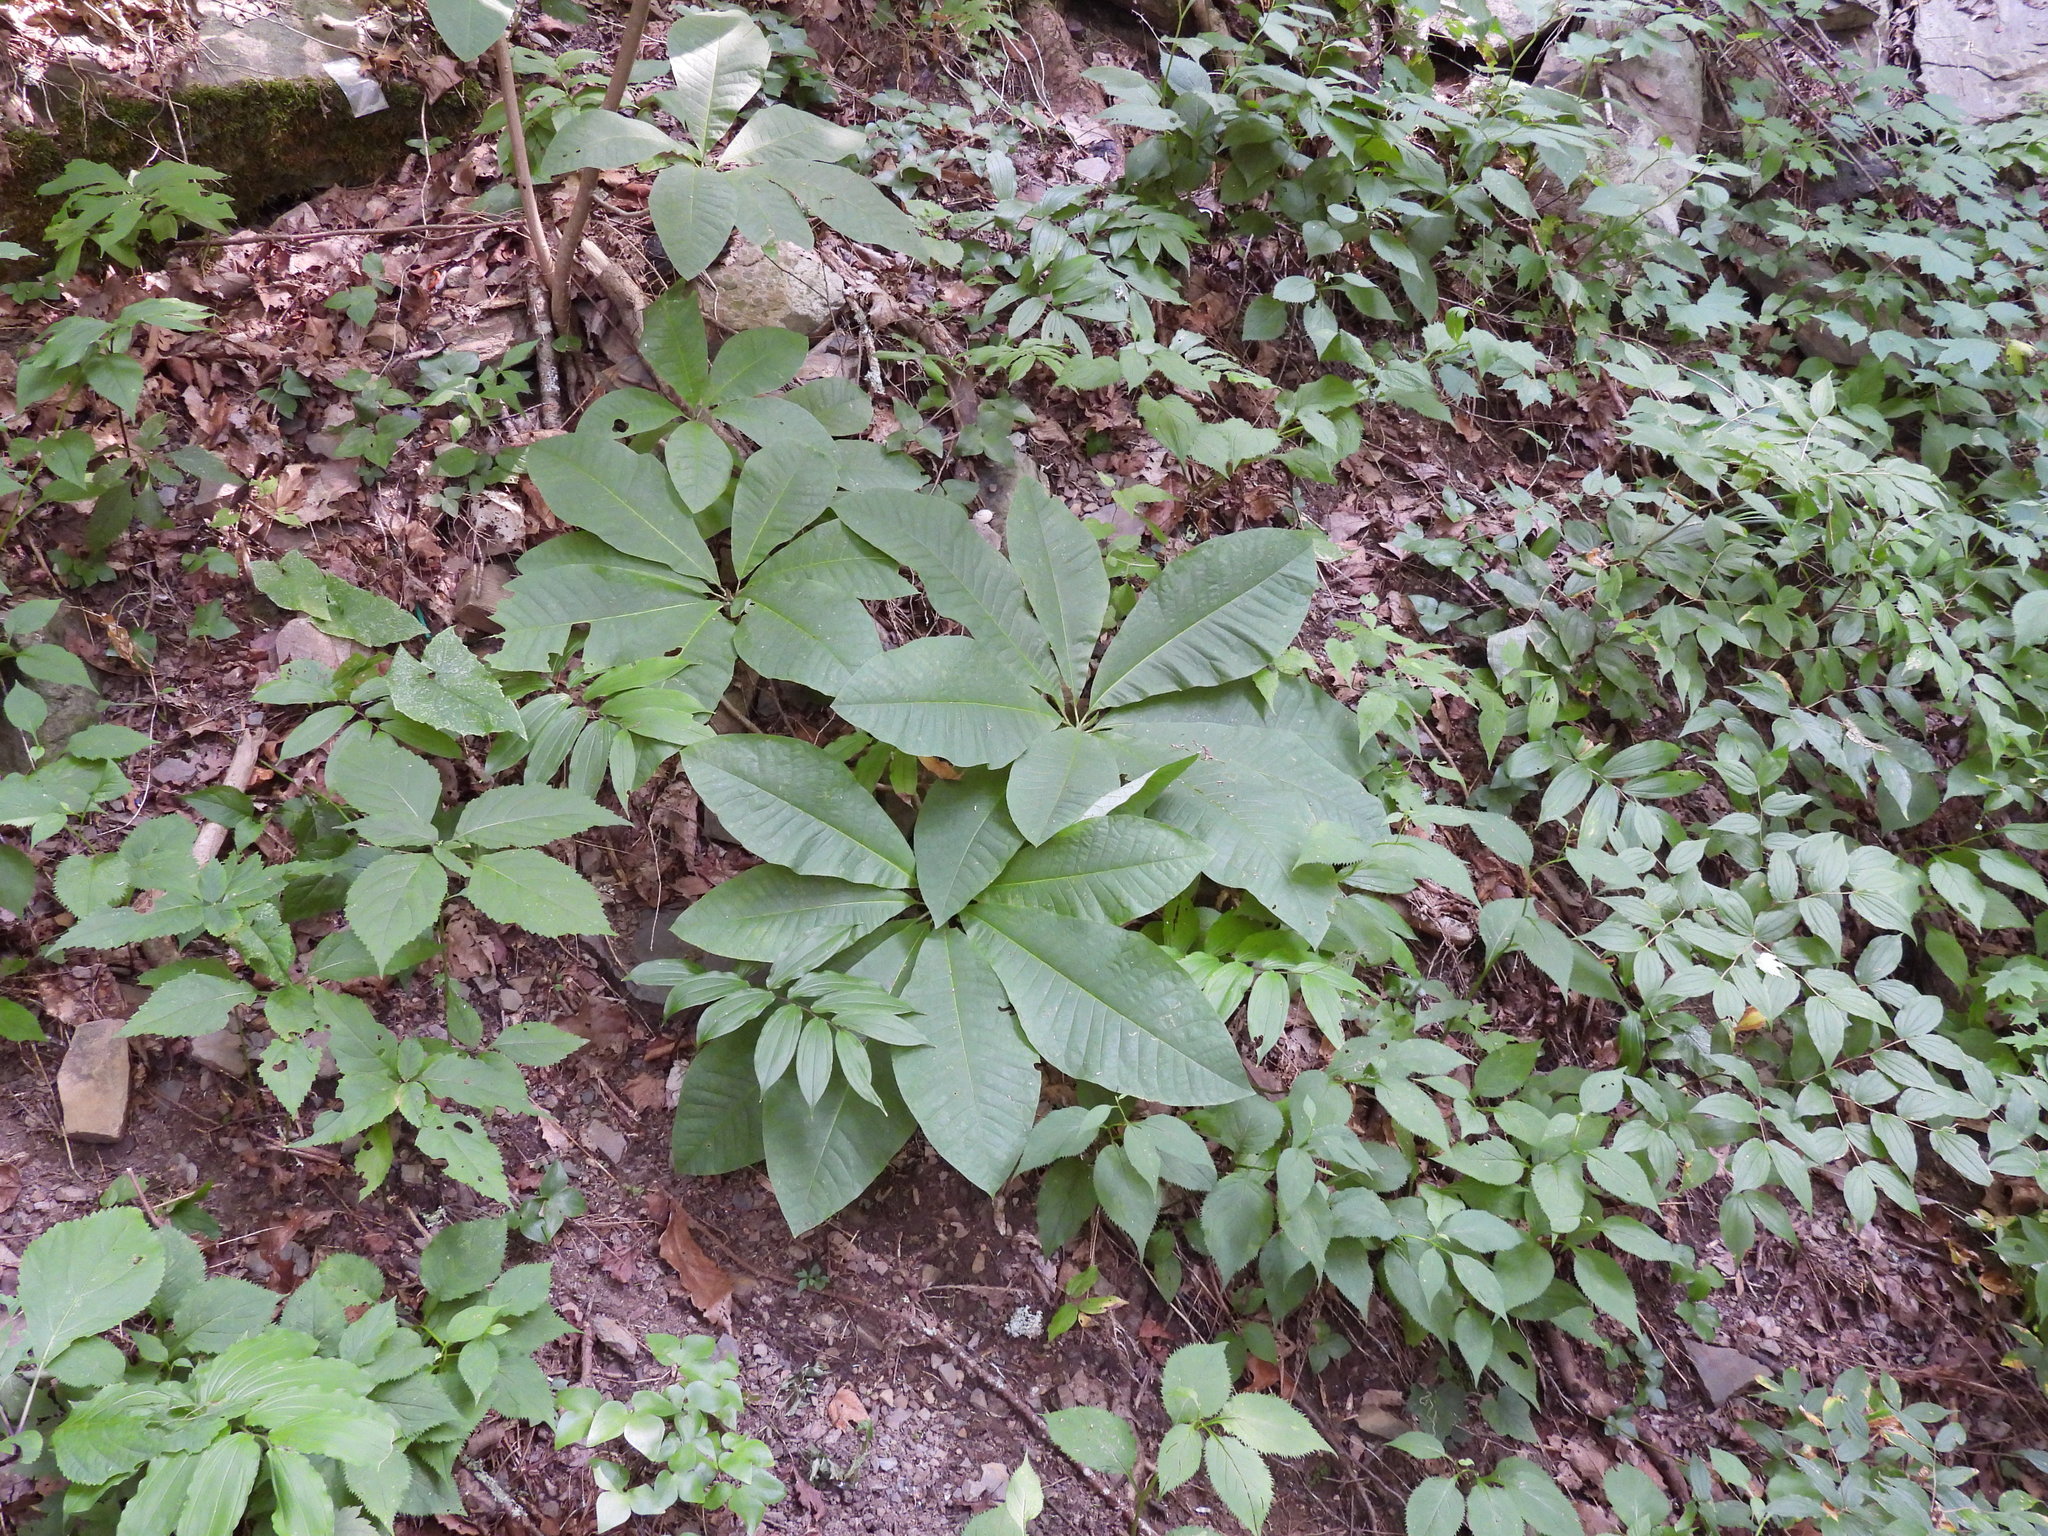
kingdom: Plantae
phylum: Tracheophyta
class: Magnoliopsida
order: Magnoliales
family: Magnoliaceae
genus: Magnolia
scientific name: Magnolia tripetala
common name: Umbrella magnolia
